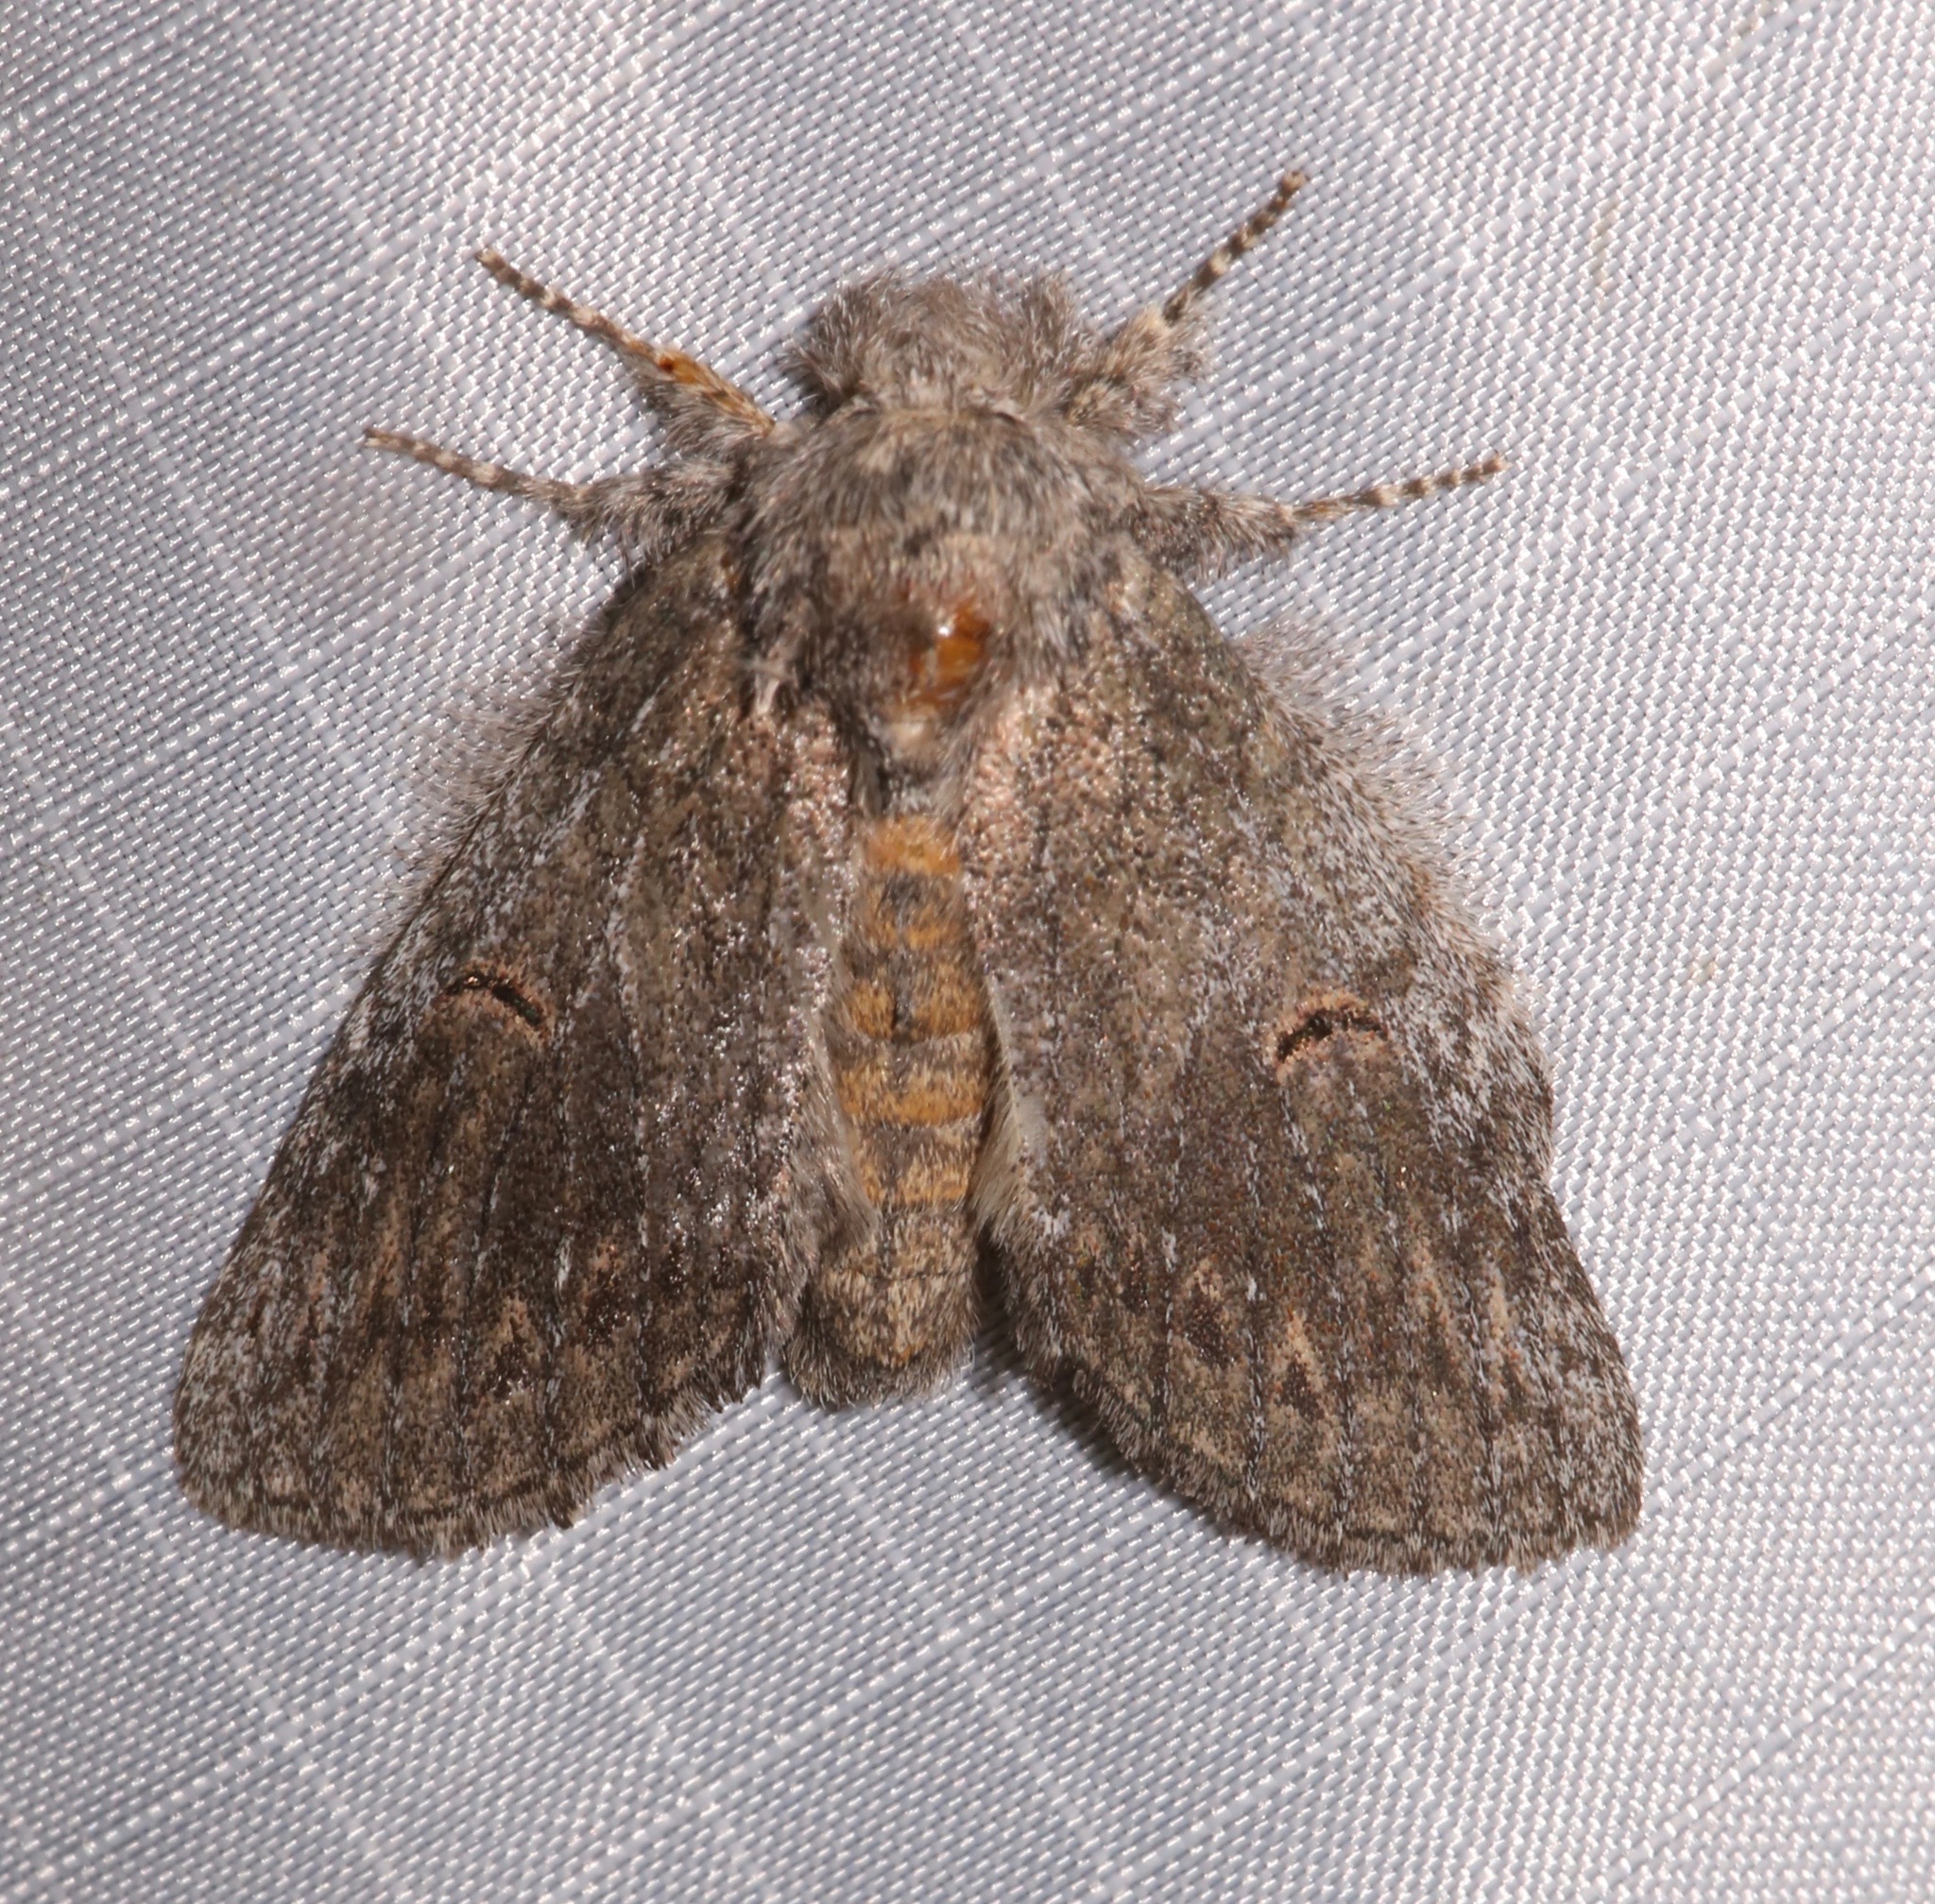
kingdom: Animalia
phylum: Arthropoda
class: Insecta
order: Lepidoptera
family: Notodontidae
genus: Disphragis
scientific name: Disphragis
